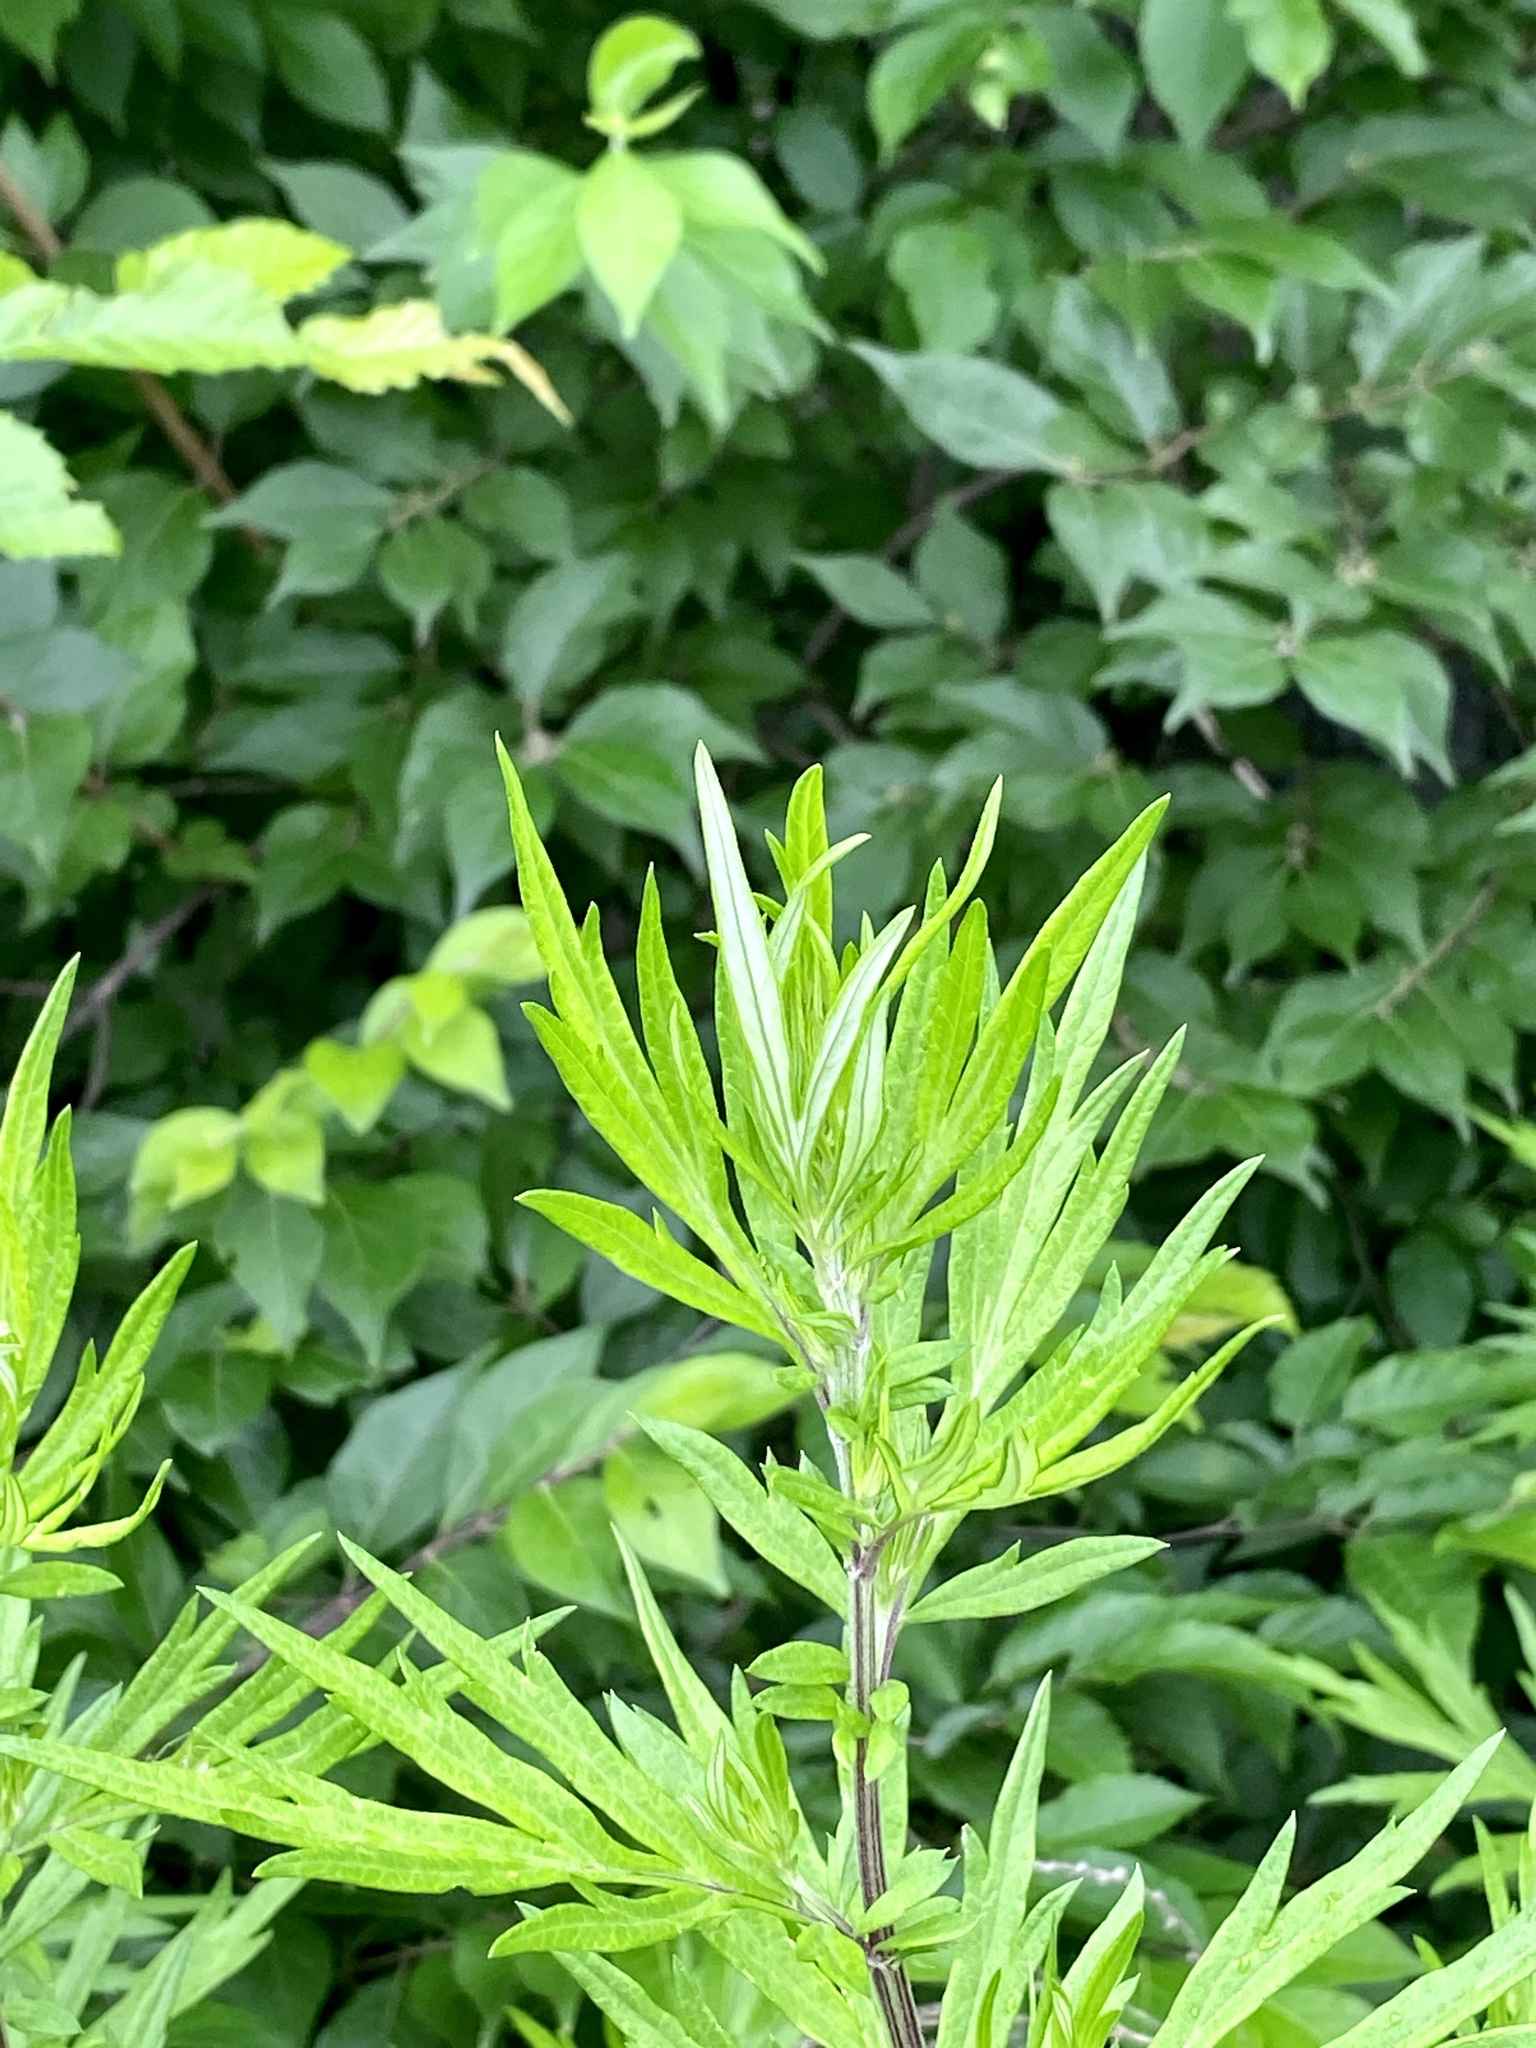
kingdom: Plantae
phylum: Tracheophyta
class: Magnoliopsida
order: Asterales
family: Asteraceae
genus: Artemisia
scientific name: Artemisia vulgaris
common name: Mugwort
